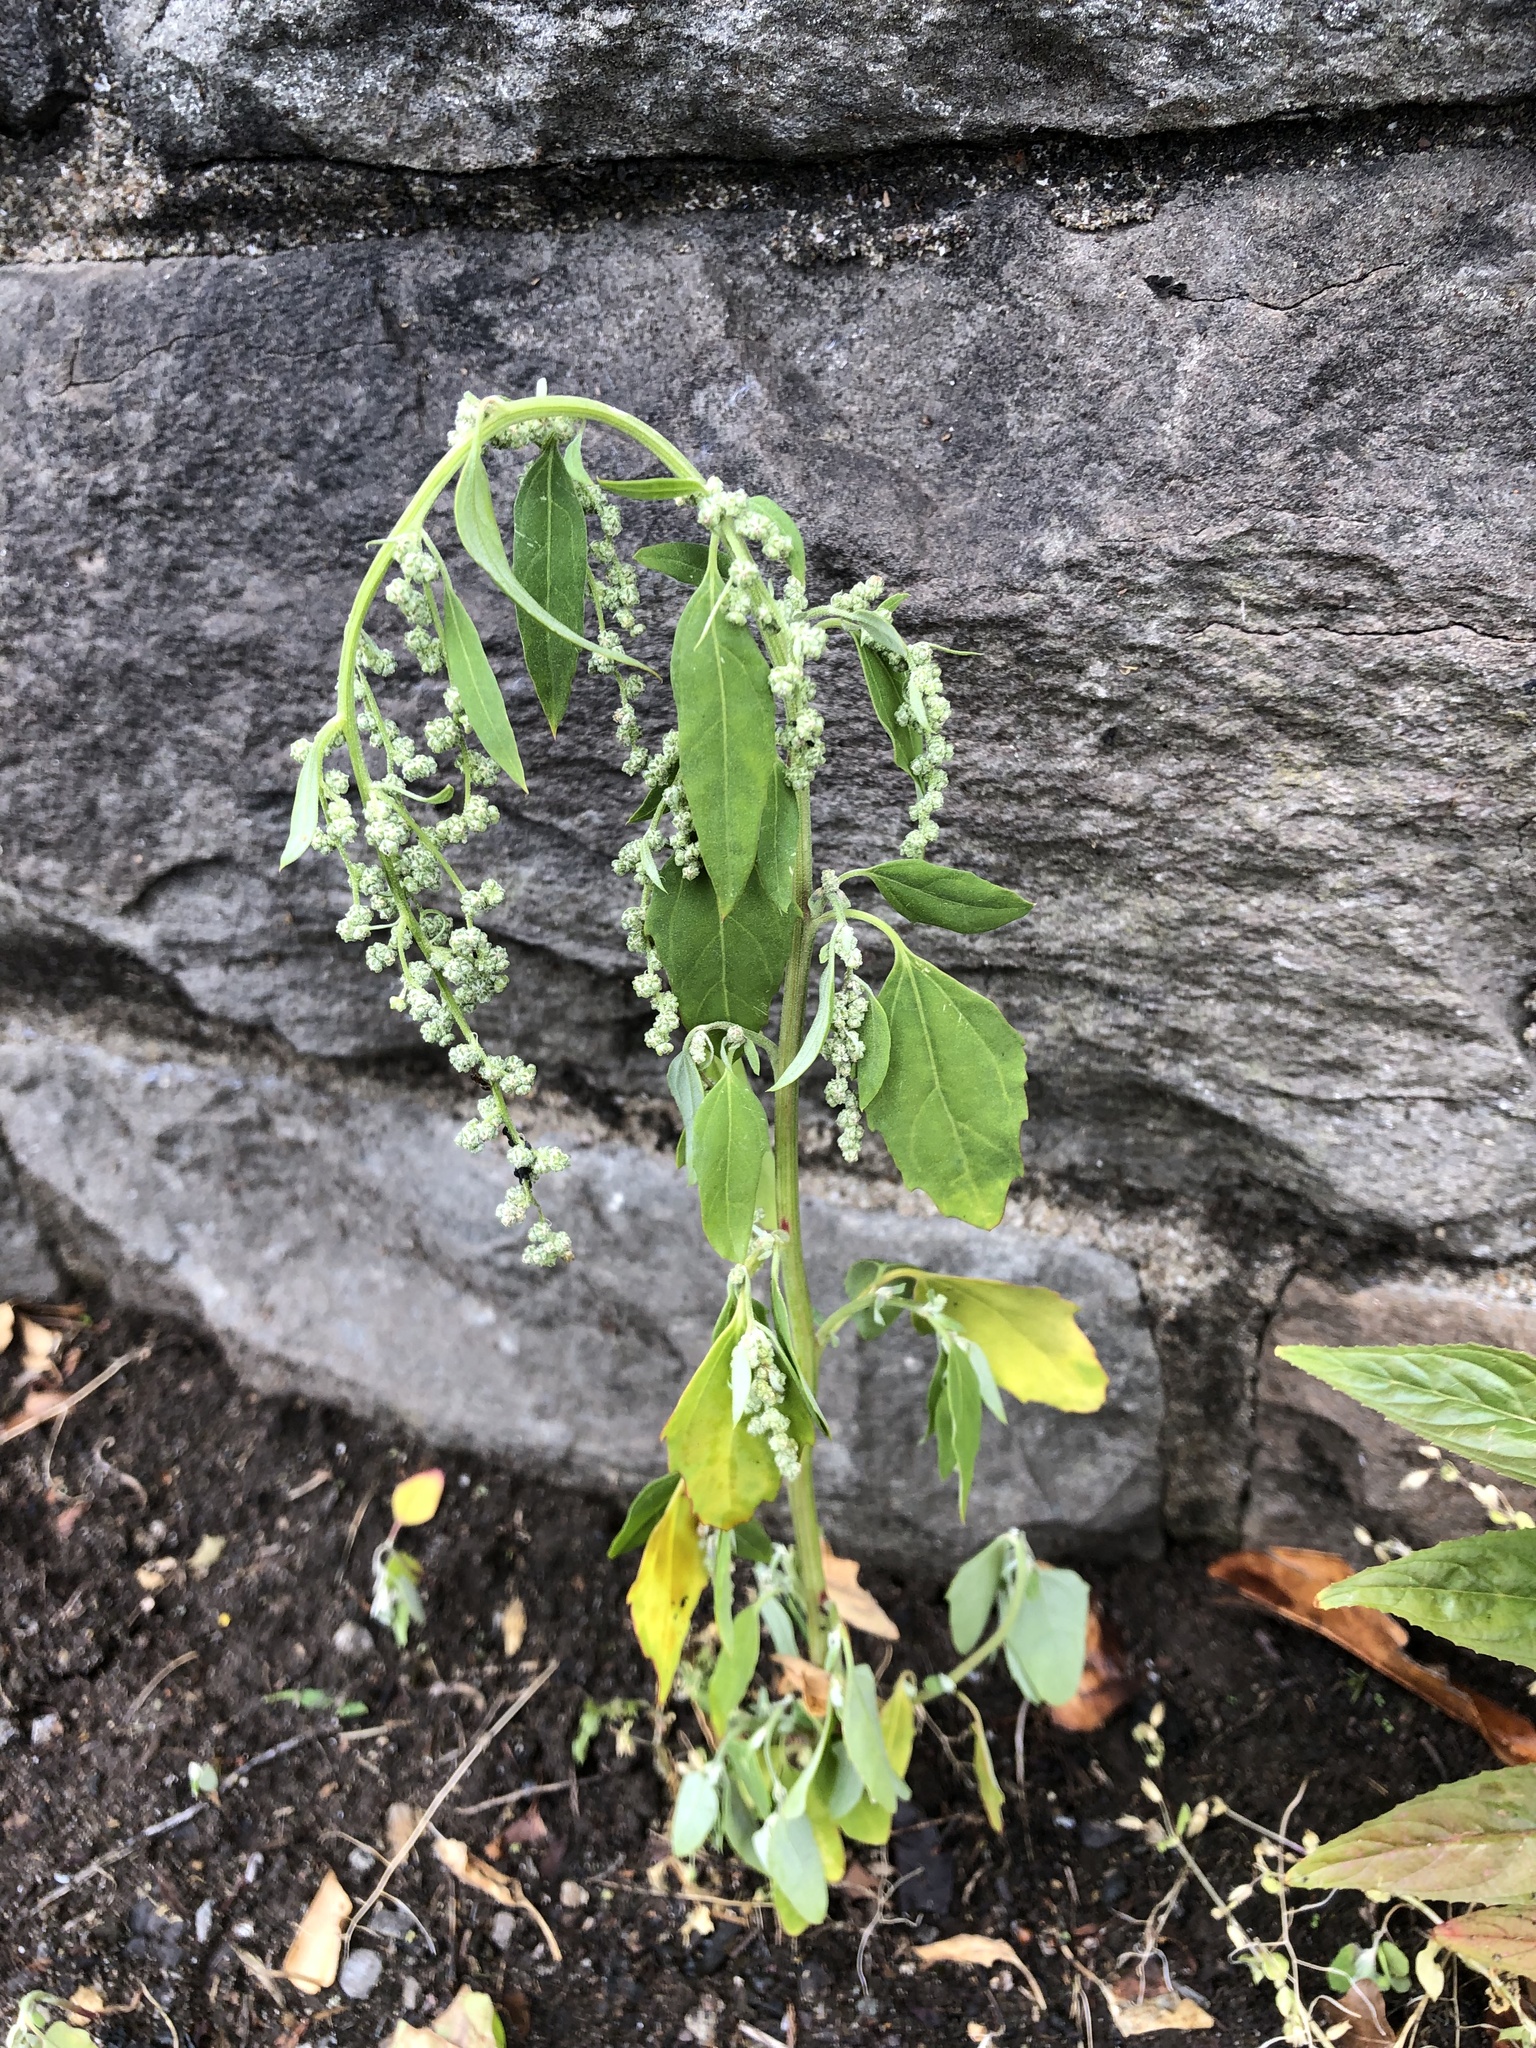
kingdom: Plantae
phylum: Tracheophyta
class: Magnoliopsida
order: Caryophyllales
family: Amaranthaceae
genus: Chenopodium
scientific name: Chenopodium album
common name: Fat-hen
